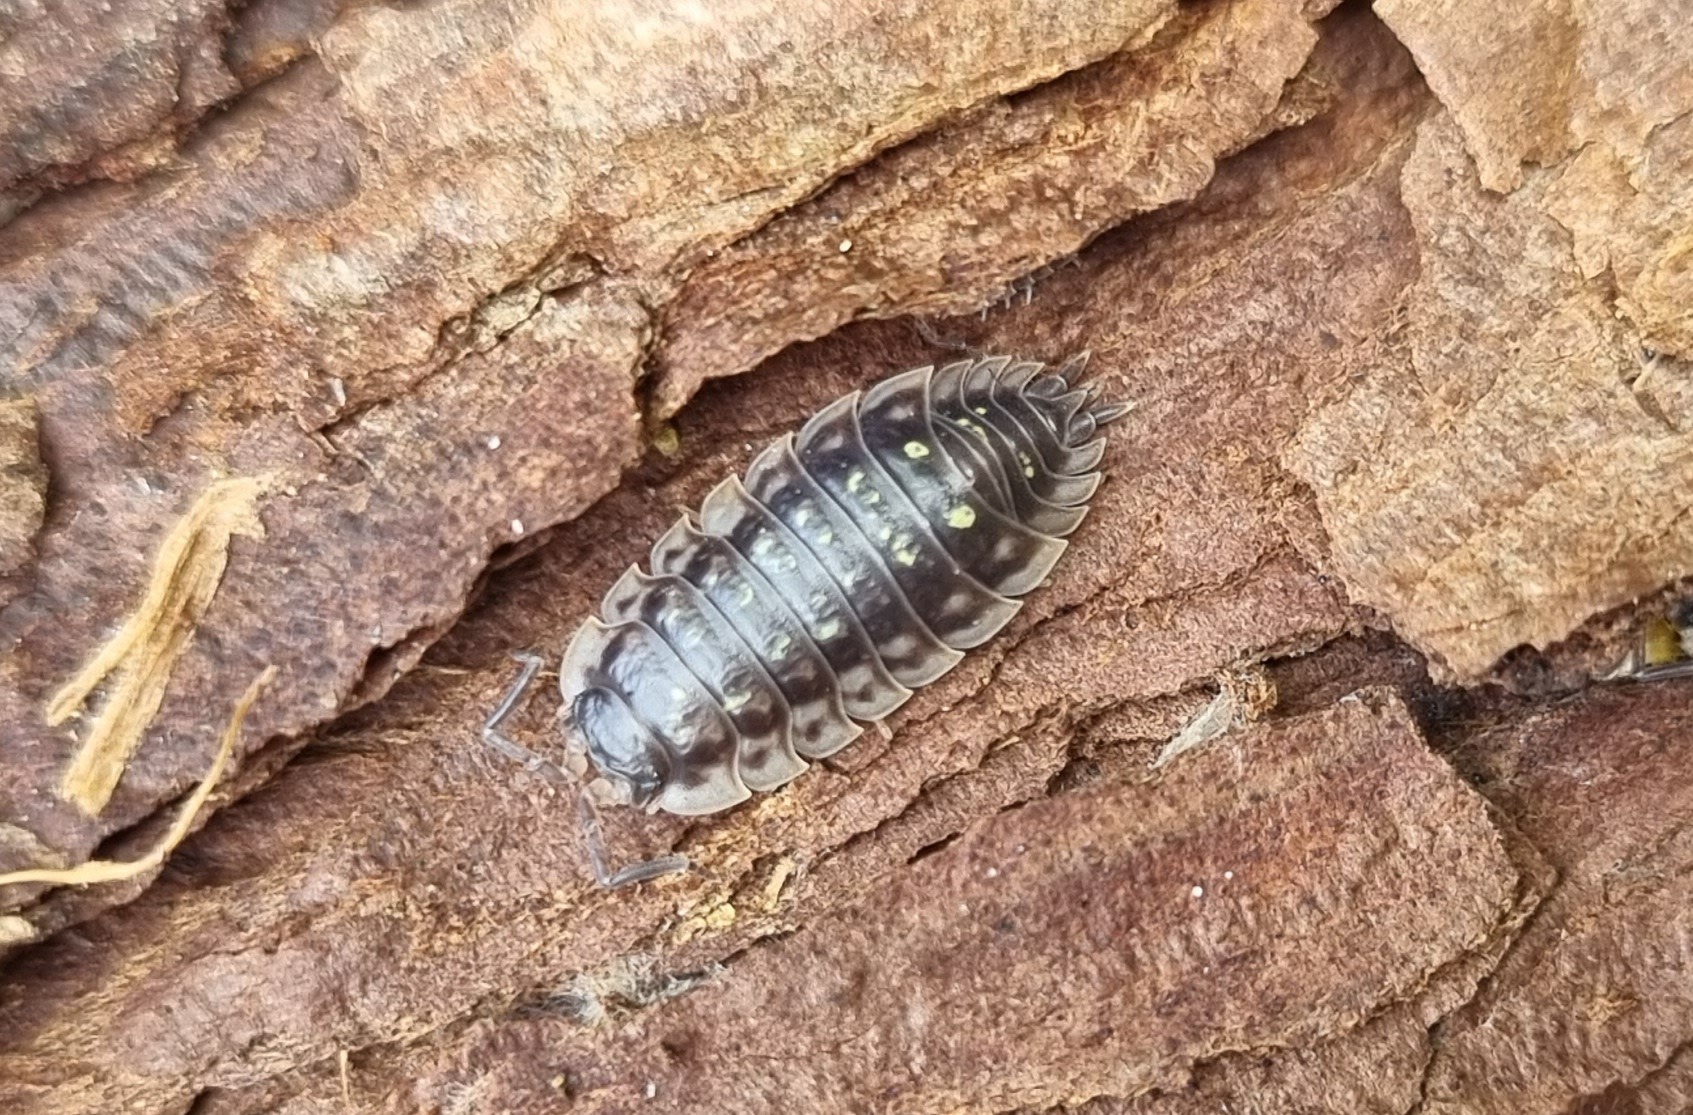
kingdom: Animalia
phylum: Arthropoda
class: Malacostraca
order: Isopoda
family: Oniscidae
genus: Oniscus
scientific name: Oniscus asellus
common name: Common shiny woodlouse
